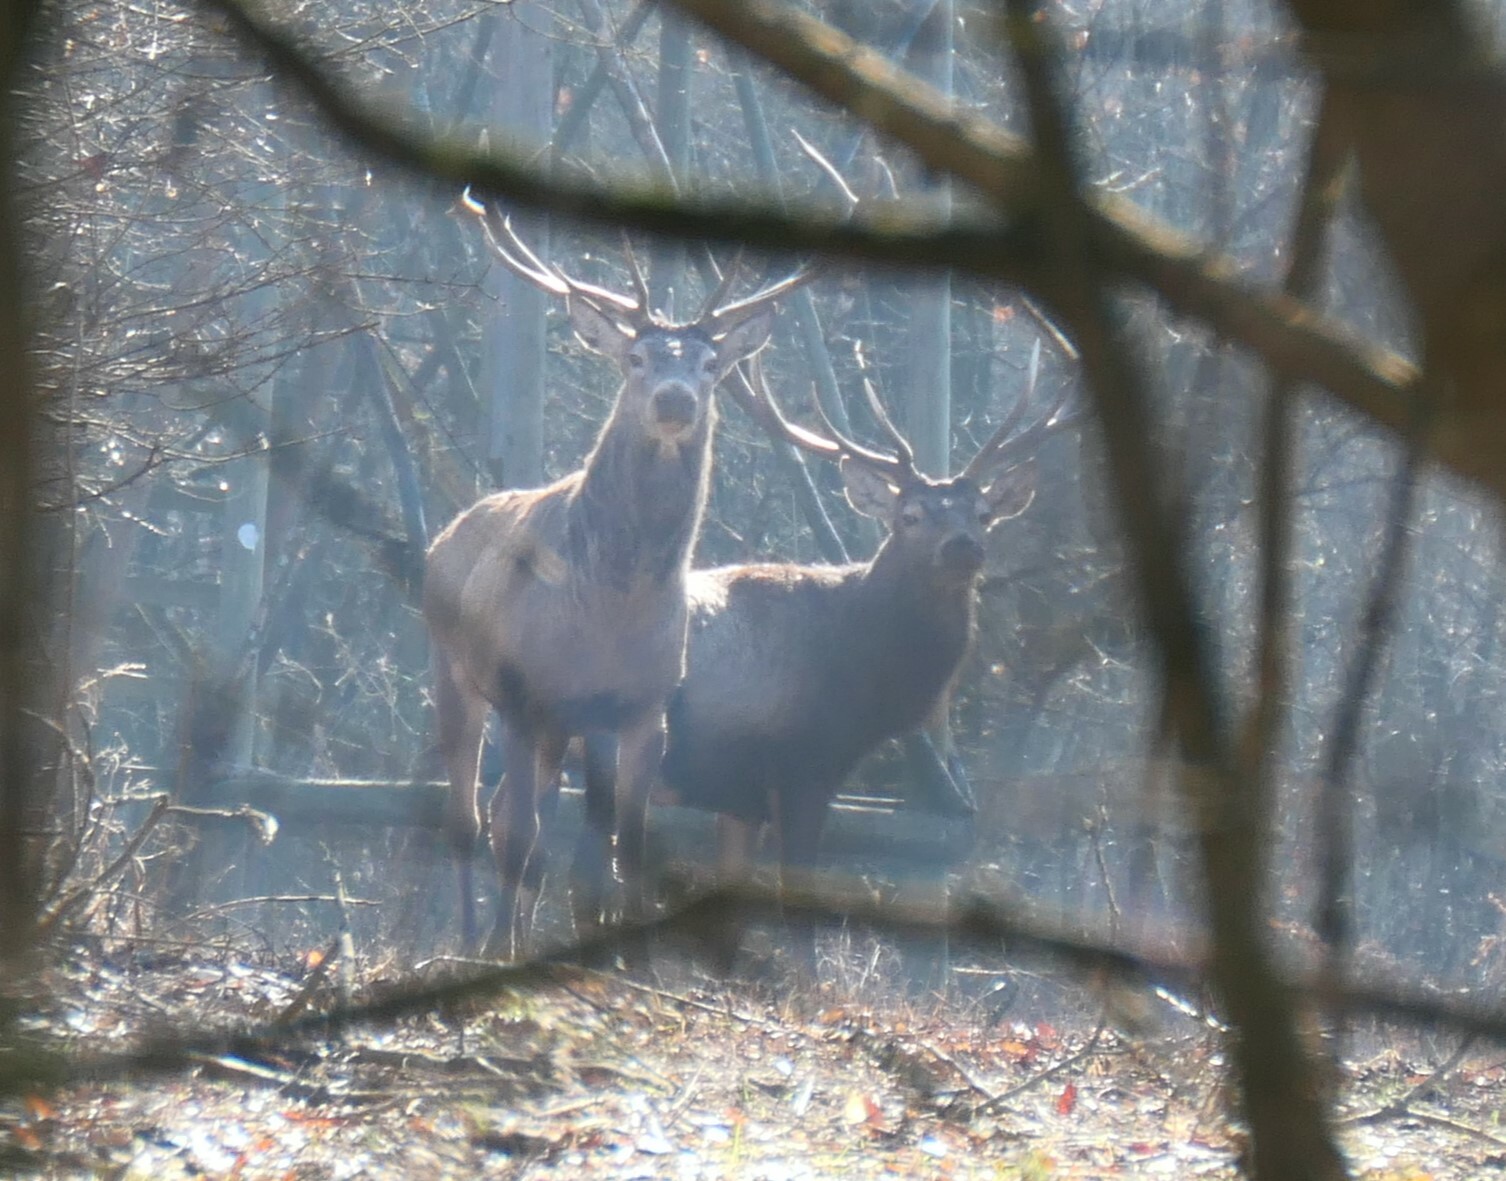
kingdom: Animalia
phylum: Chordata
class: Mammalia
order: Artiodactyla
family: Cervidae
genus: Cervus
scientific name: Cervus elaphus
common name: Red deer
